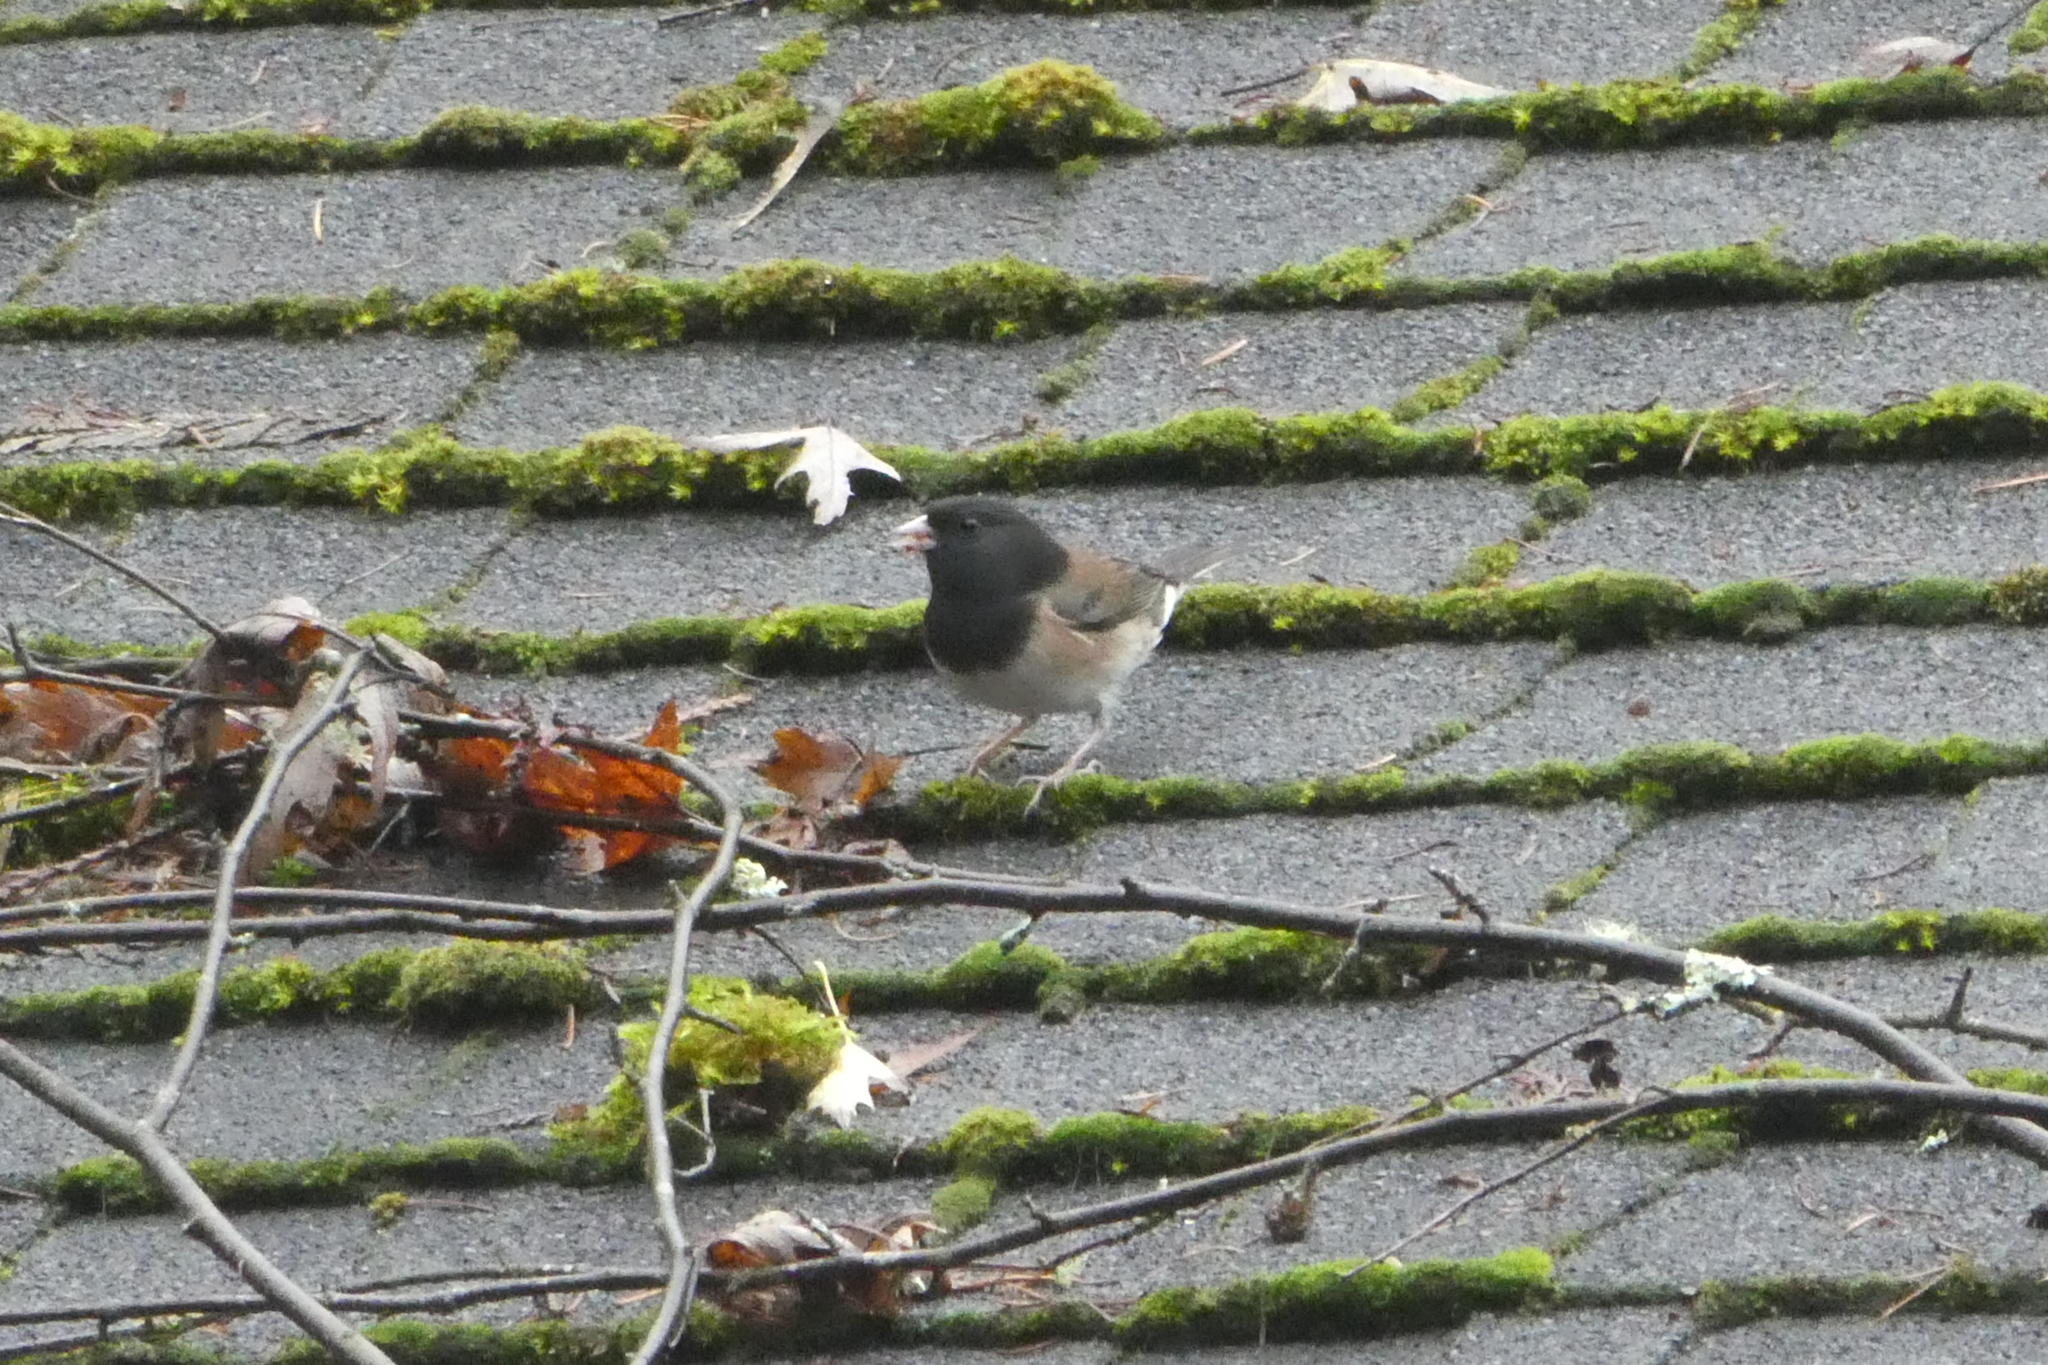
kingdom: Animalia
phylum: Chordata
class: Aves
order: Passeriformes
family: Passerellidae
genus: Junco
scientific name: Junco hyemalis
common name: Dark-eyed junco
